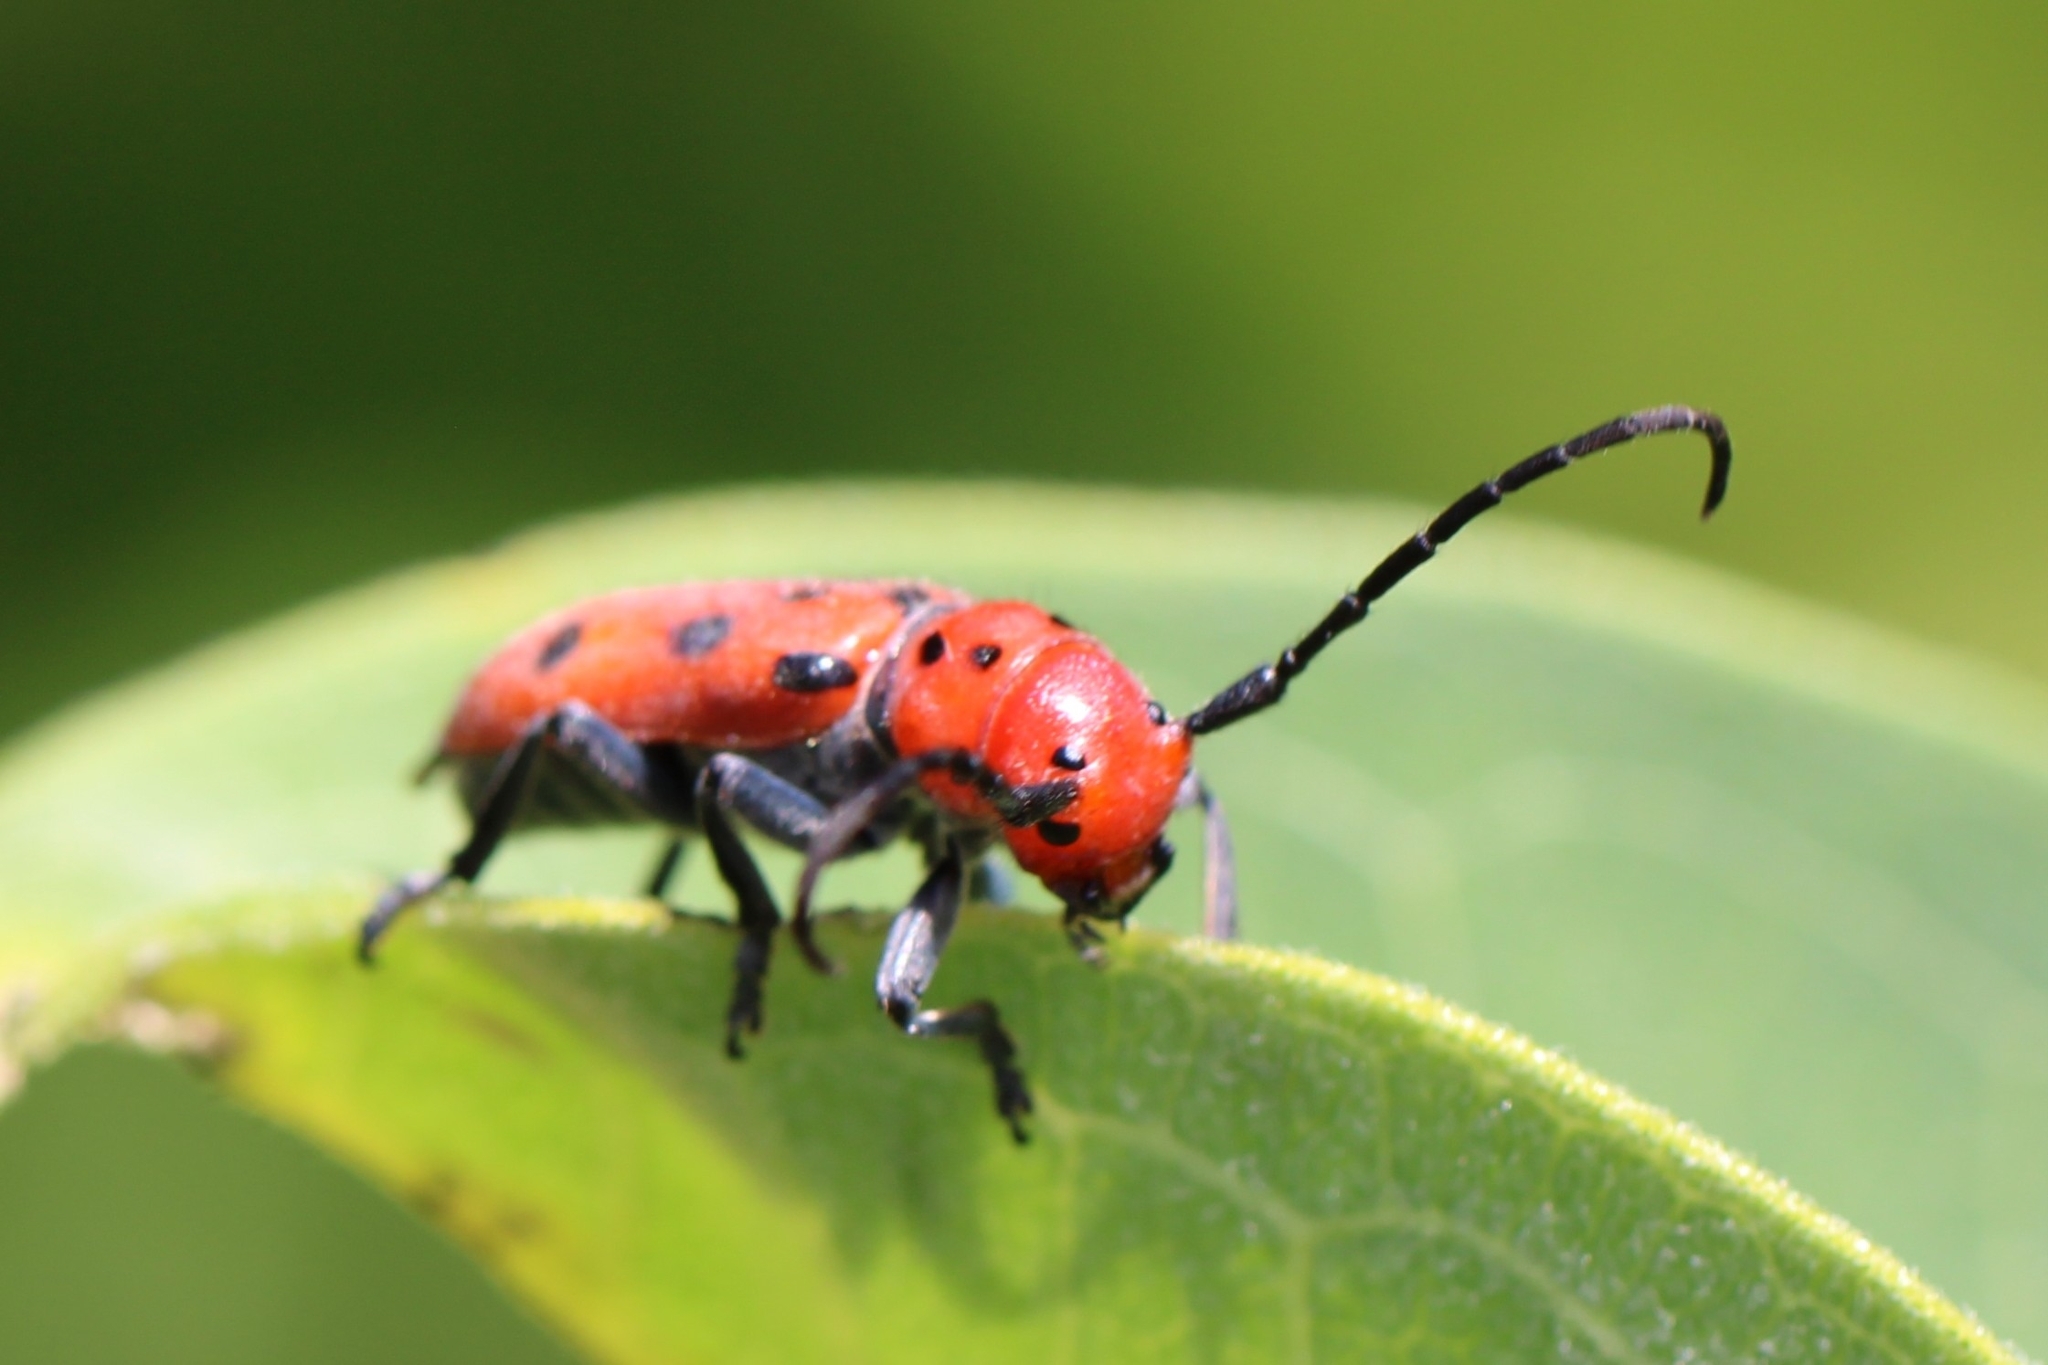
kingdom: Animalia
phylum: Arthropoda
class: Insecta
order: Coleoptera
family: Cerambycidae
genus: Tetraopes
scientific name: Tetraopes tetrophthalmus
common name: Red milkweed beetle
